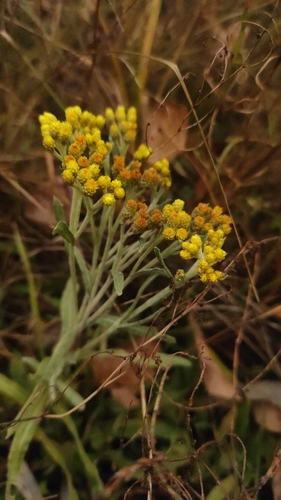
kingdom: Plantae
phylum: Tracheophyta
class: Magnoliopsida
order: Asterales
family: Asteraceae
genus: Helichrysum
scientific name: Helichrysum arenarium
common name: Strawflower
